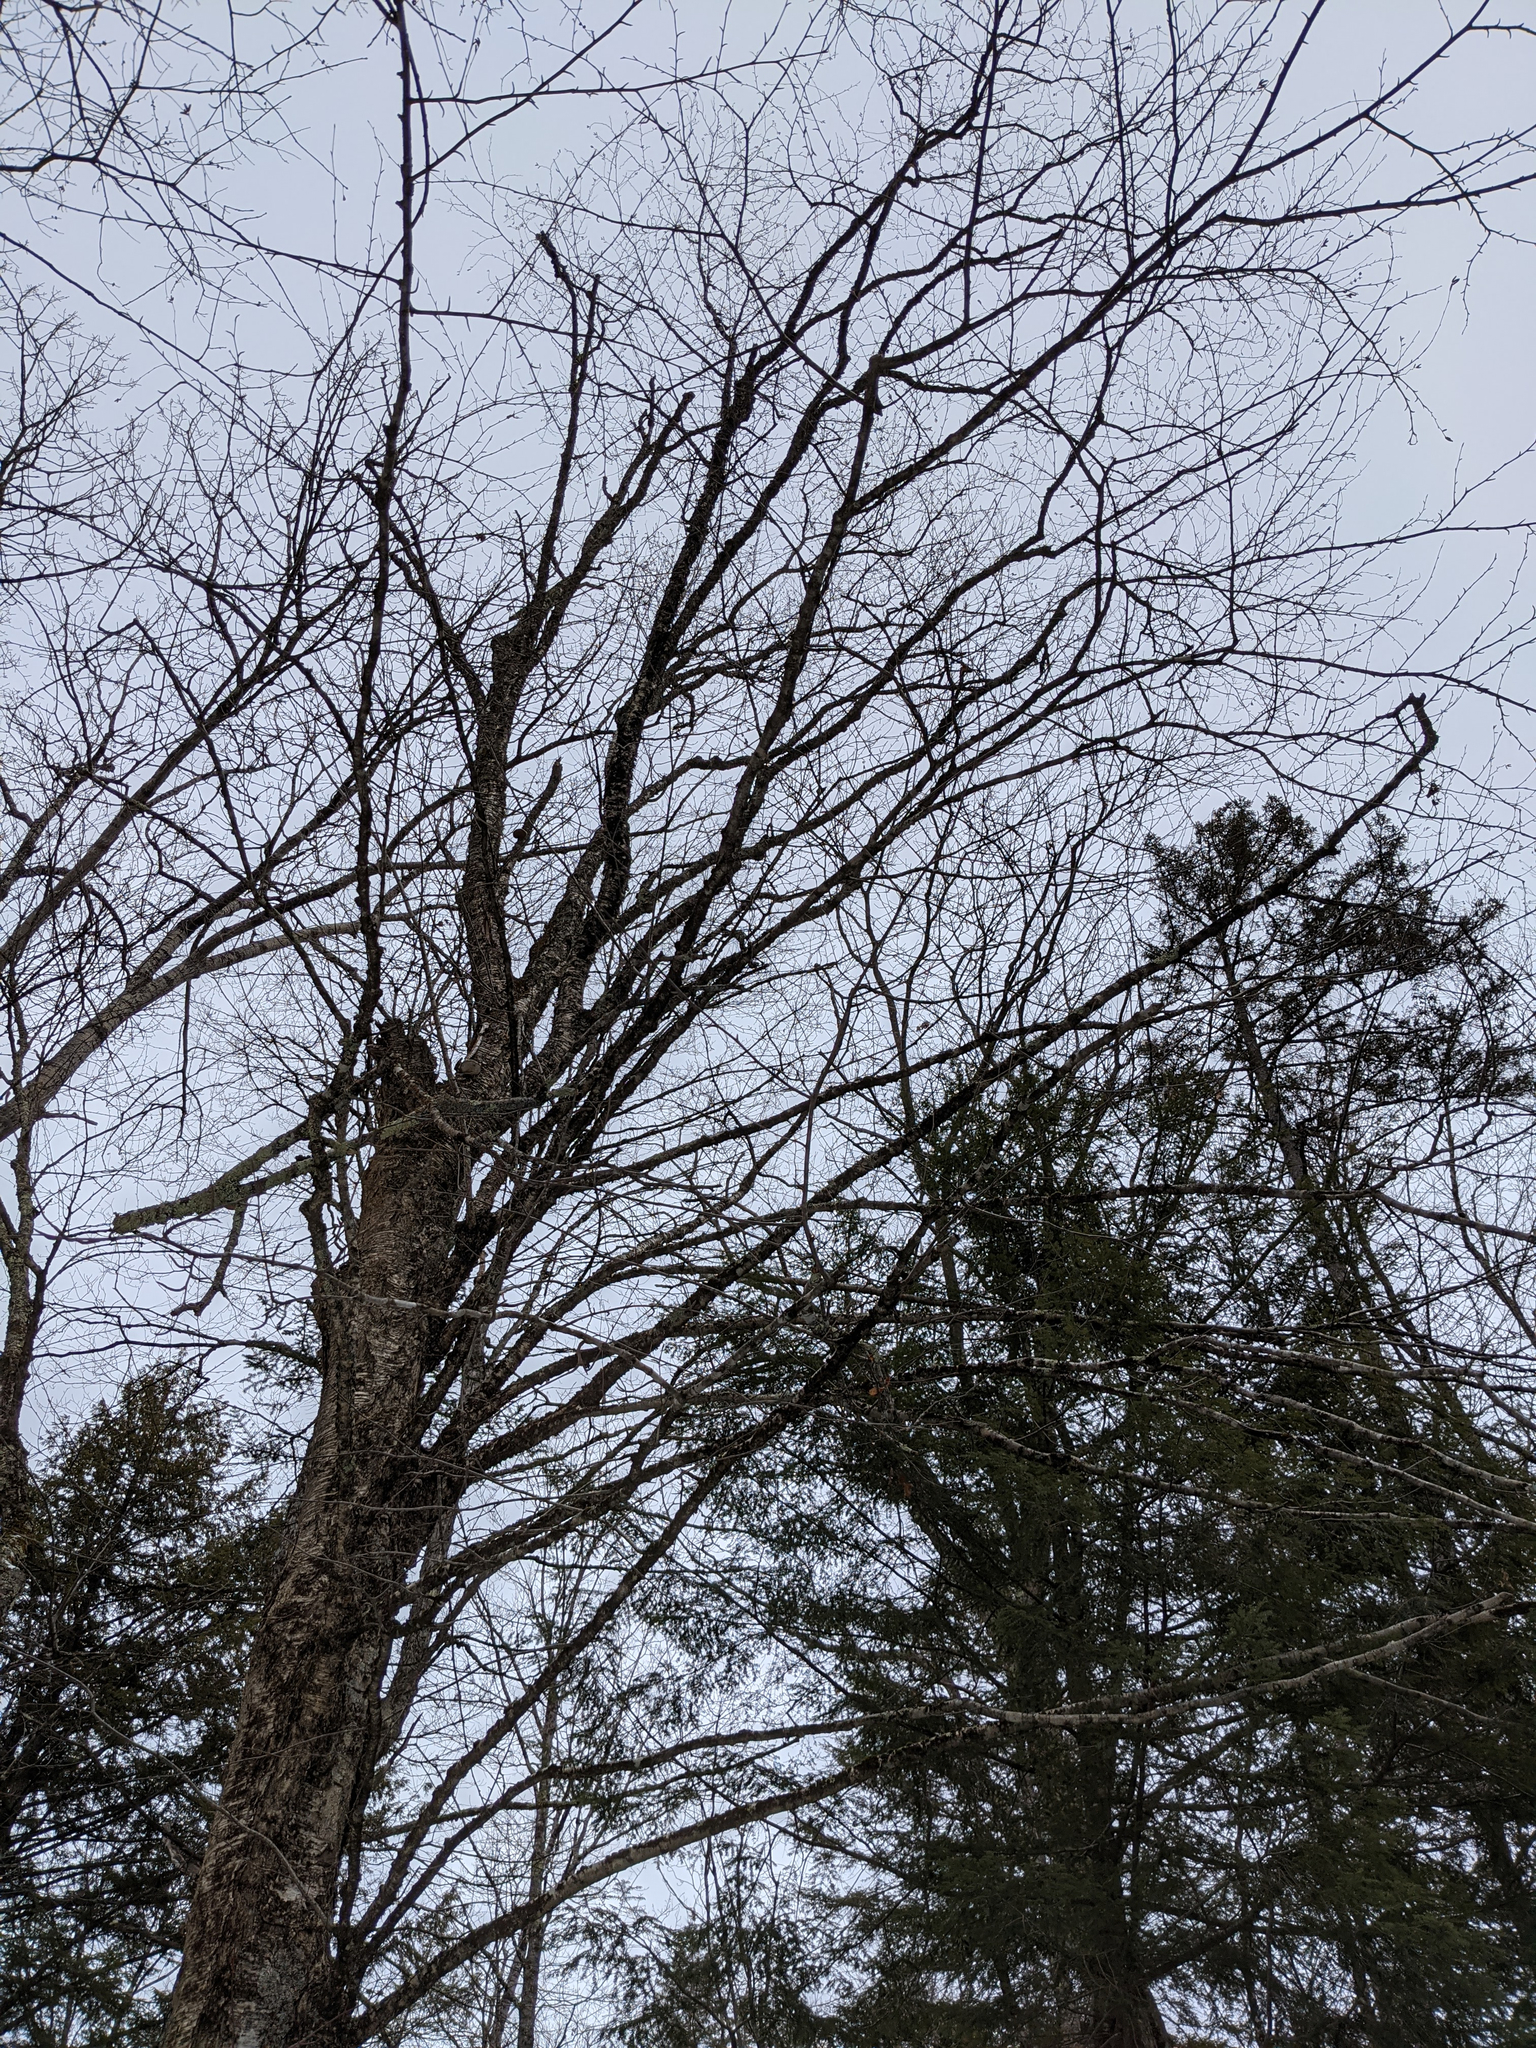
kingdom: Plantae
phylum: Tracheophyta
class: Magnoliopsida
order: Fagales
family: Betulaceae
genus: Betula
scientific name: Betula alleghaniensis
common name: Yellow birch
